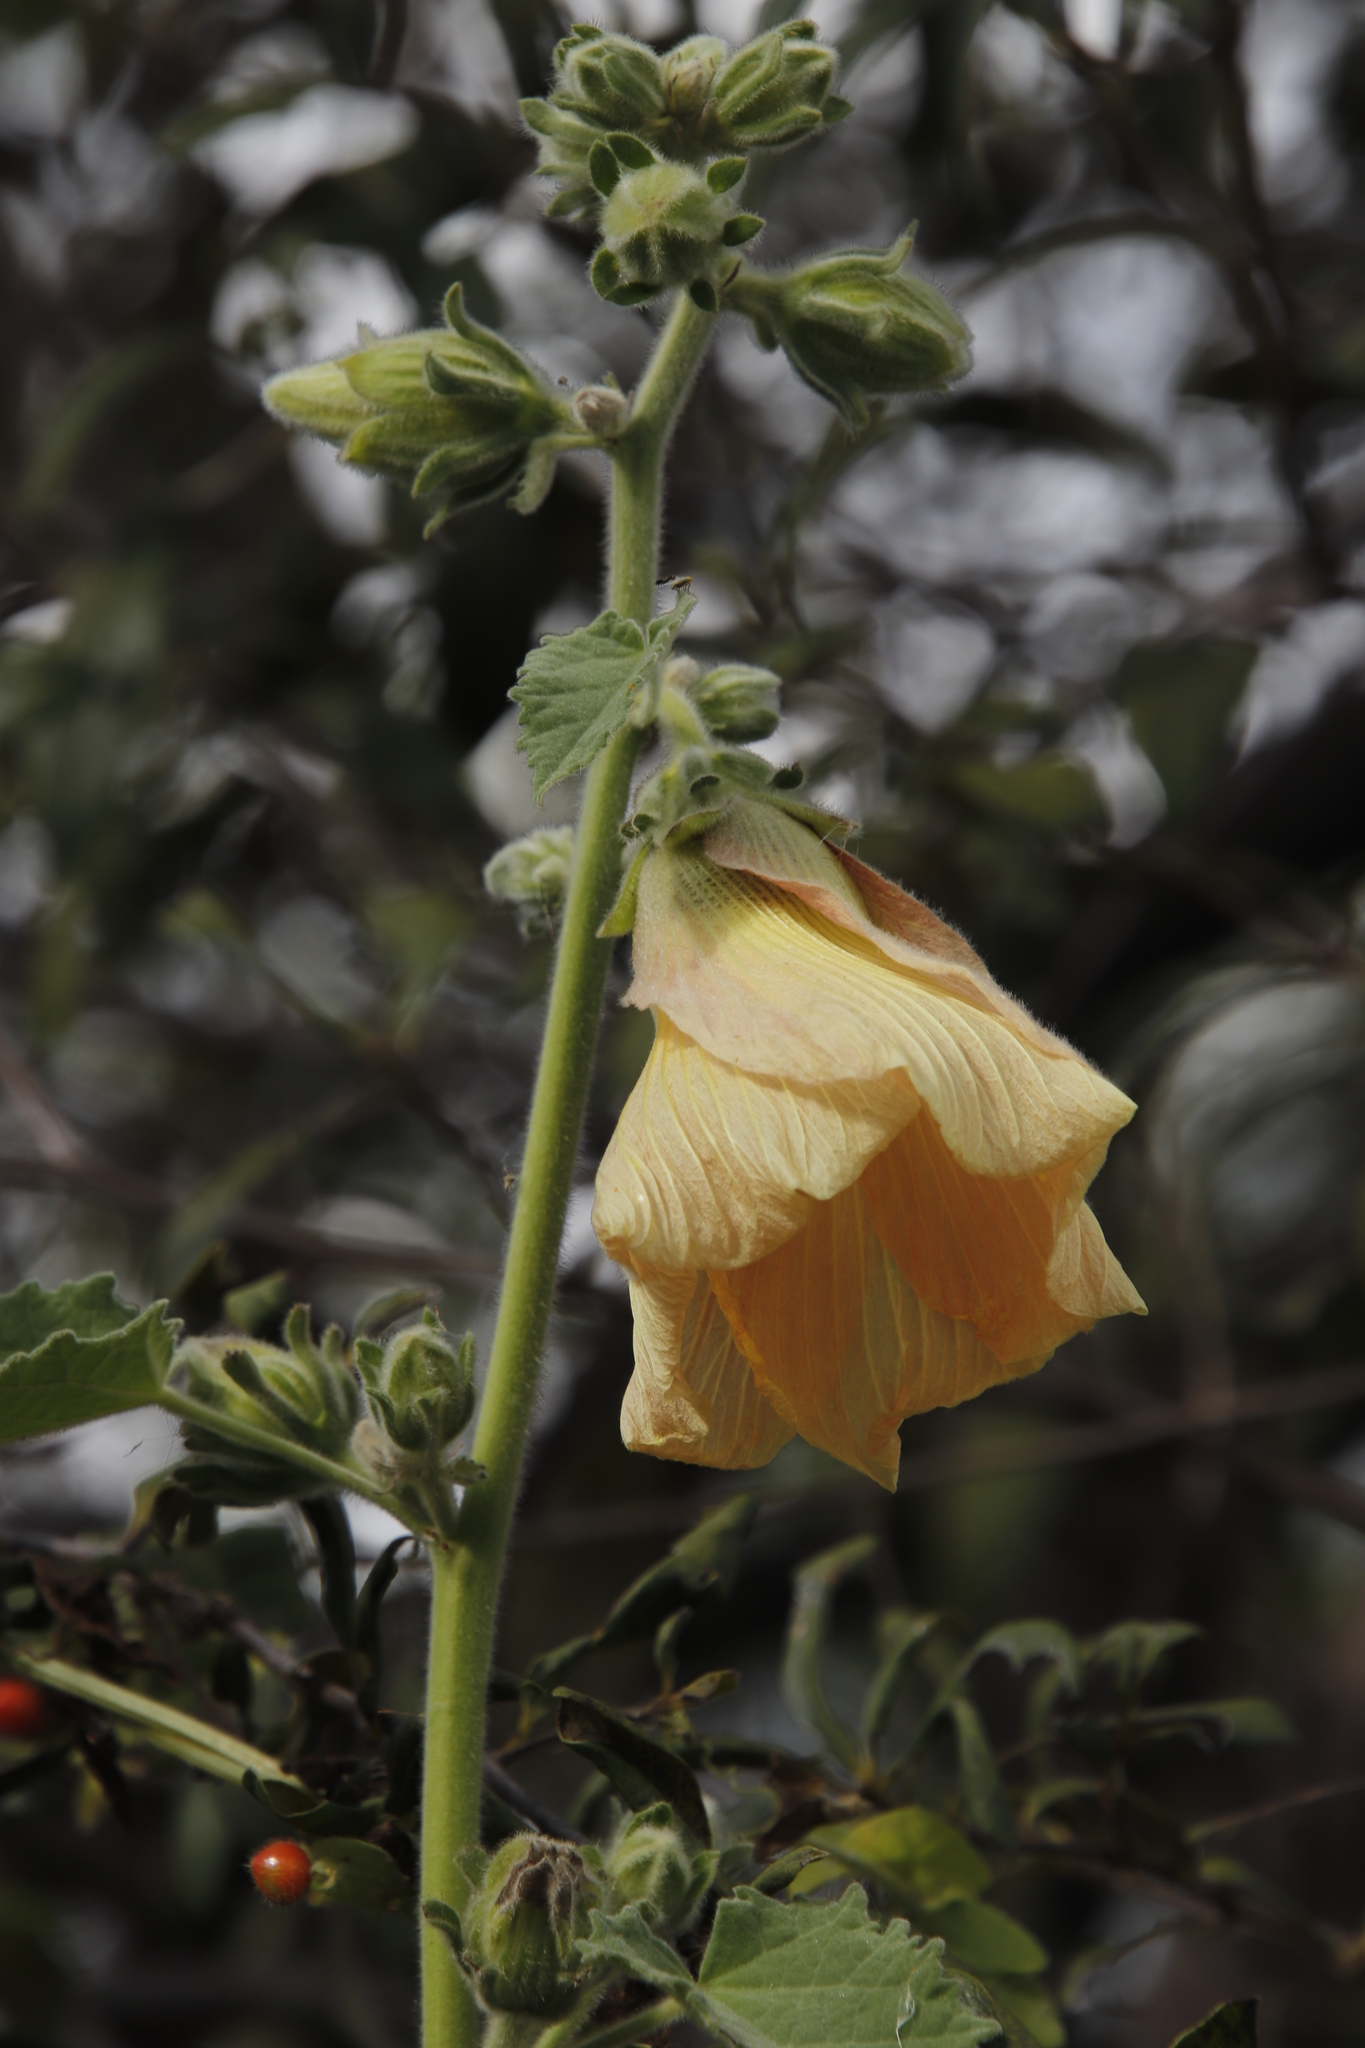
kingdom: Plantae
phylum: Tracheophyta
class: Magnoliopsida
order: Malvales
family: Malvaceae
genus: Hibiscus
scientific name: Hibiscus panduriformis
